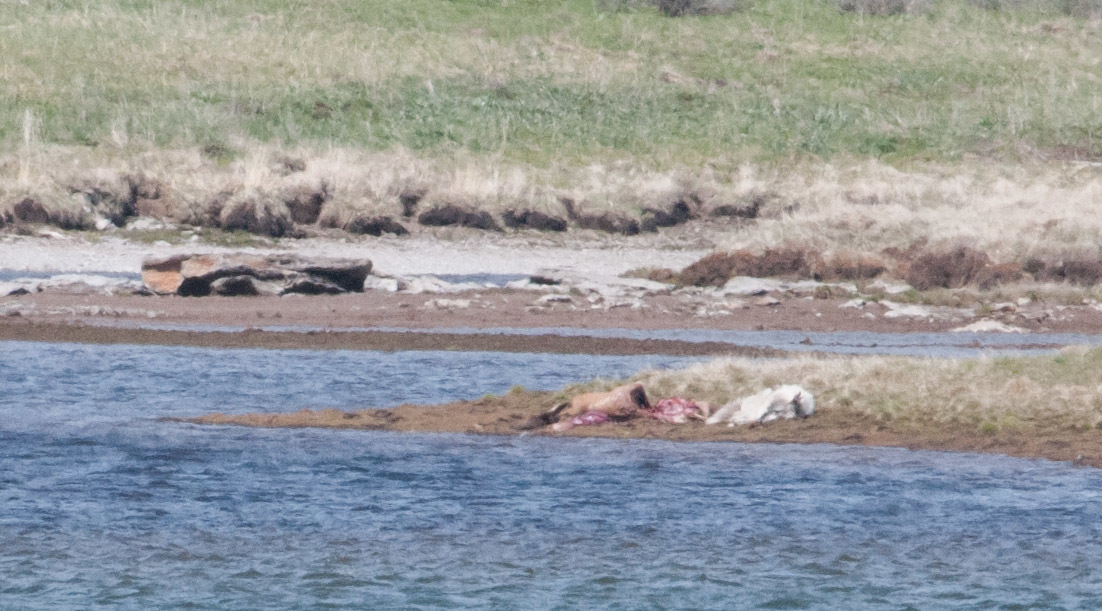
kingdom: Animalia
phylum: Chordata
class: Mammalia
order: Carnivora
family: Canidae
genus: Canis
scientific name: Canis lupus
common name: Gray wolf
